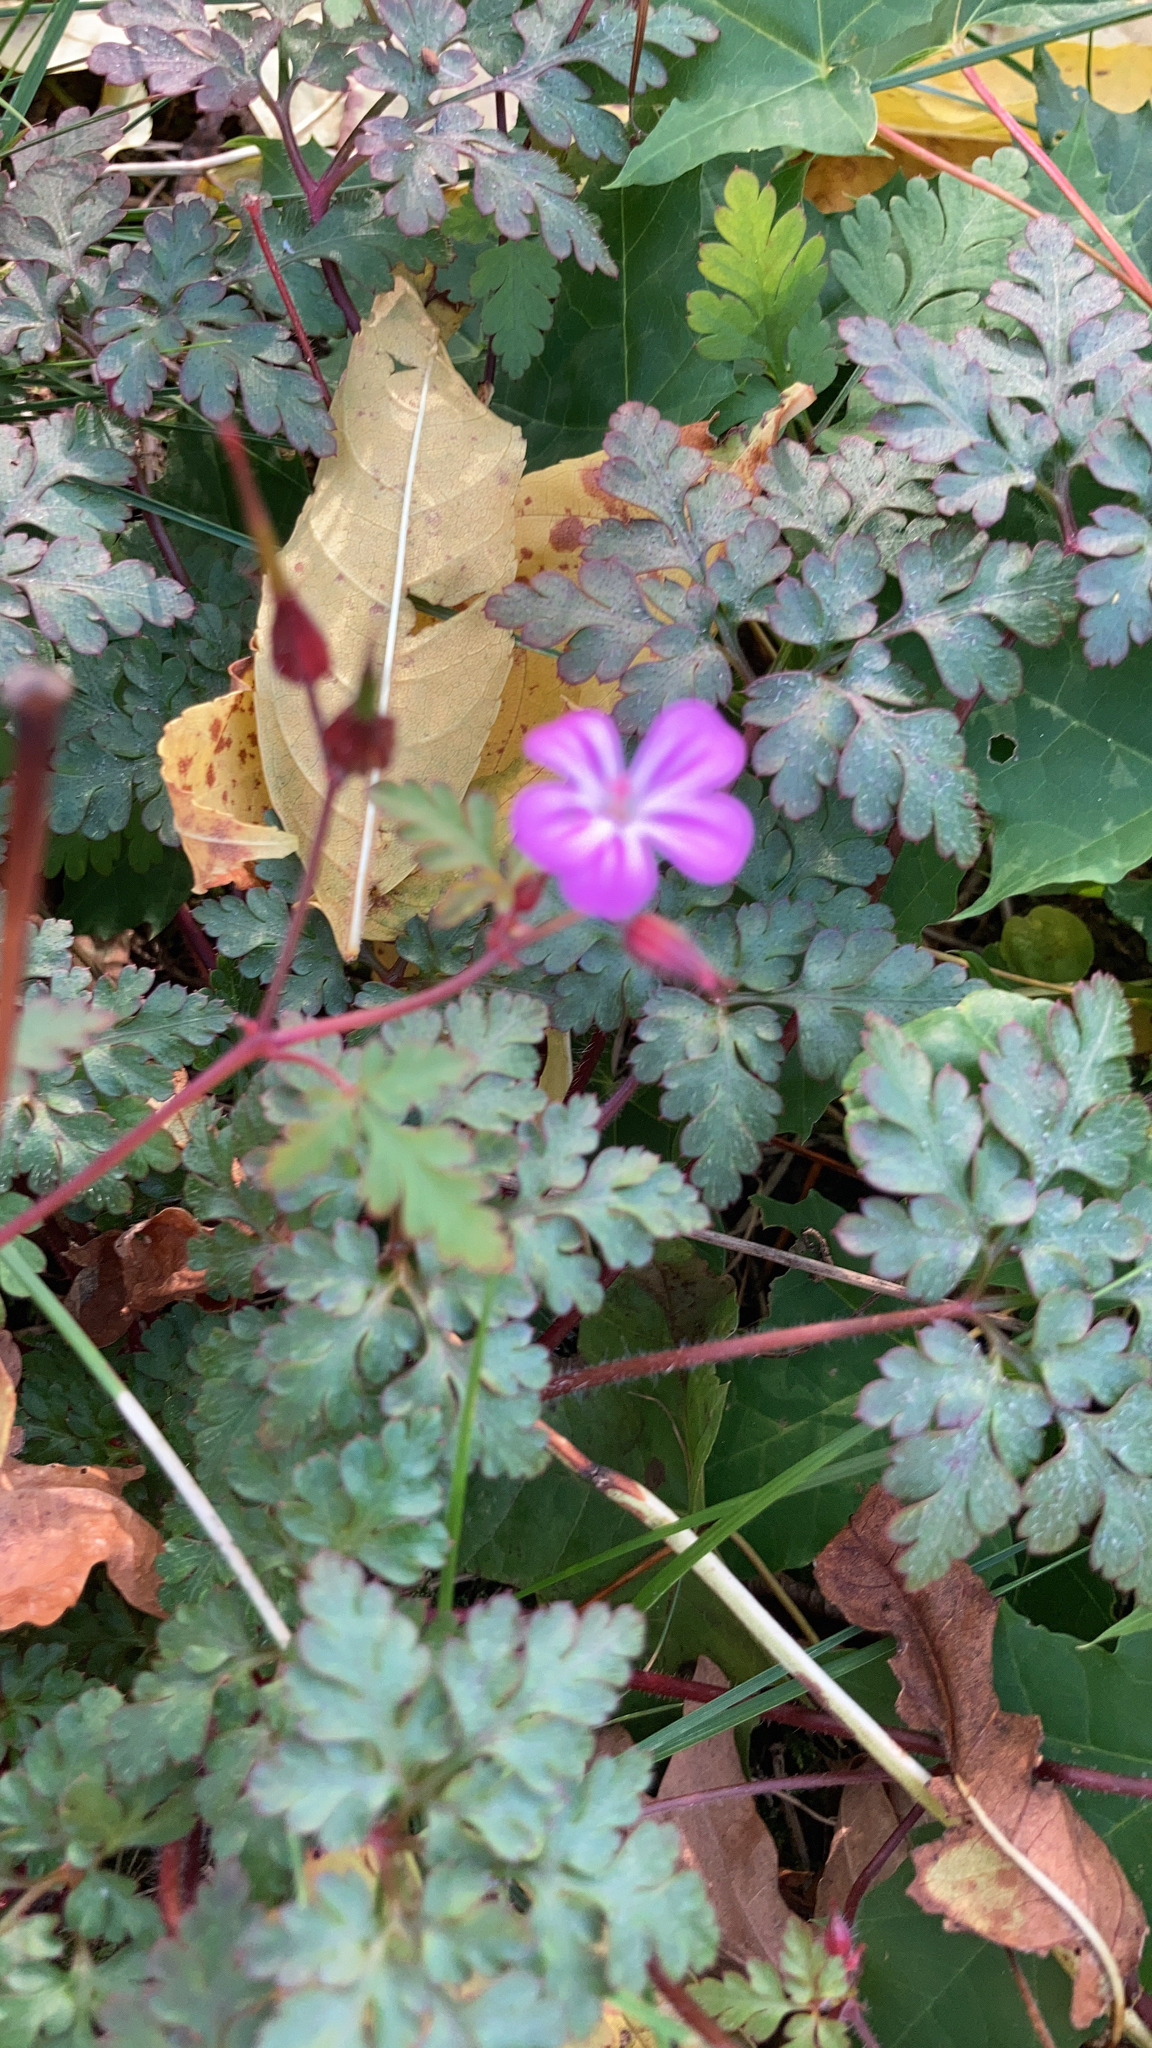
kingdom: Plantae
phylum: Tracheophyta
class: Magnoliopsida
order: Geraniales
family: Geraniaceae
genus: Geranium
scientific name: Geranium robertianum
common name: Herb-robert
